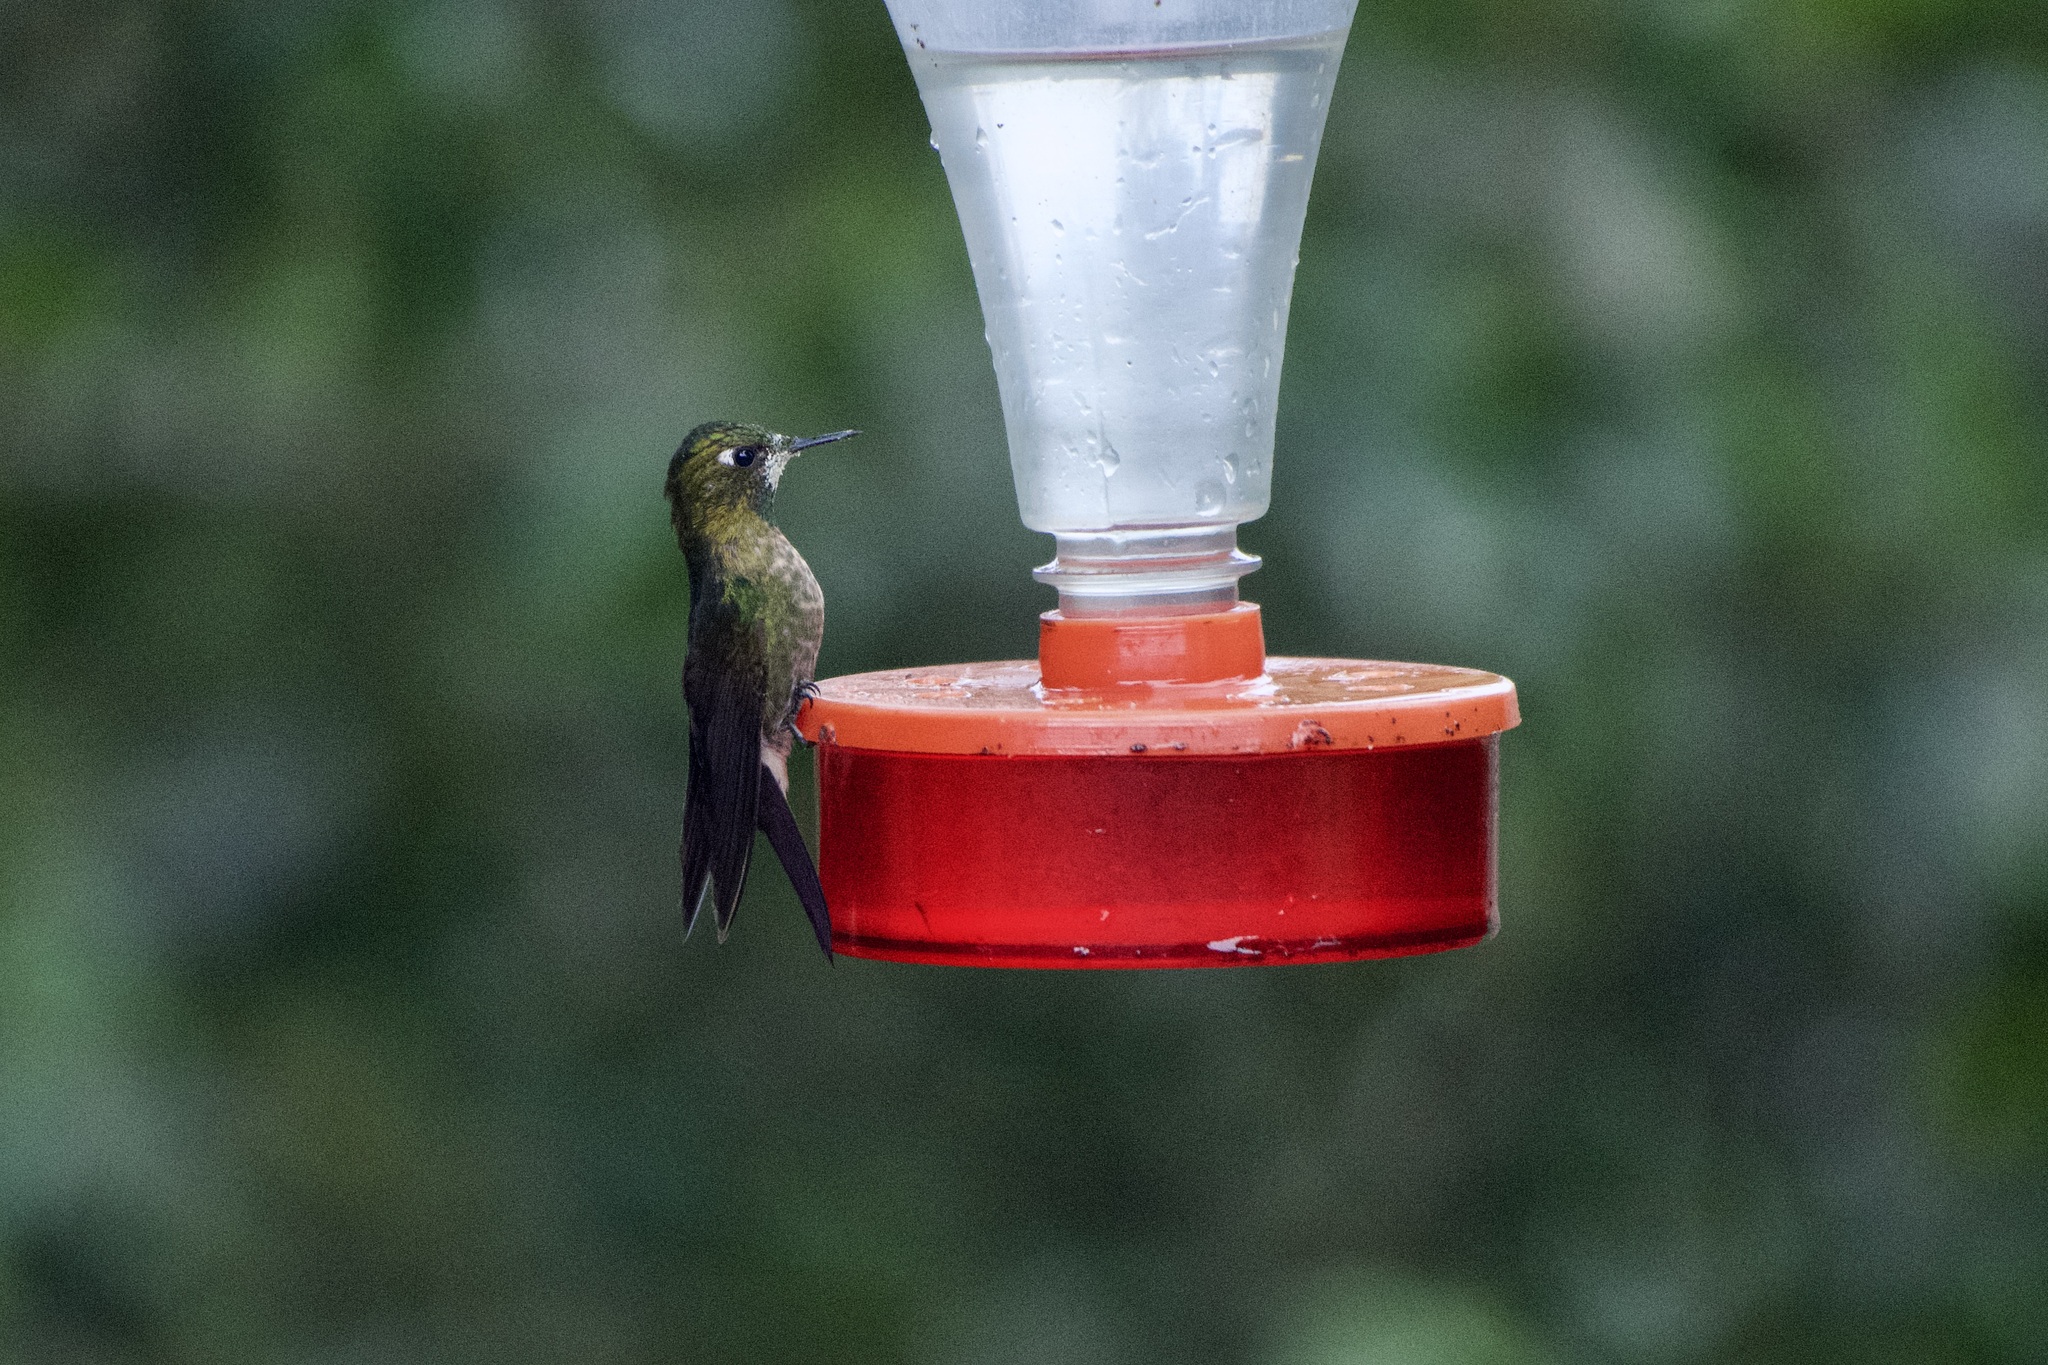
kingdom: Animalia
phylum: Chordata
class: Aves
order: Apodiformes
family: Trochilidae
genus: Metallura
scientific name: Metallura tyrianthina
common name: Tyrian metaltail
